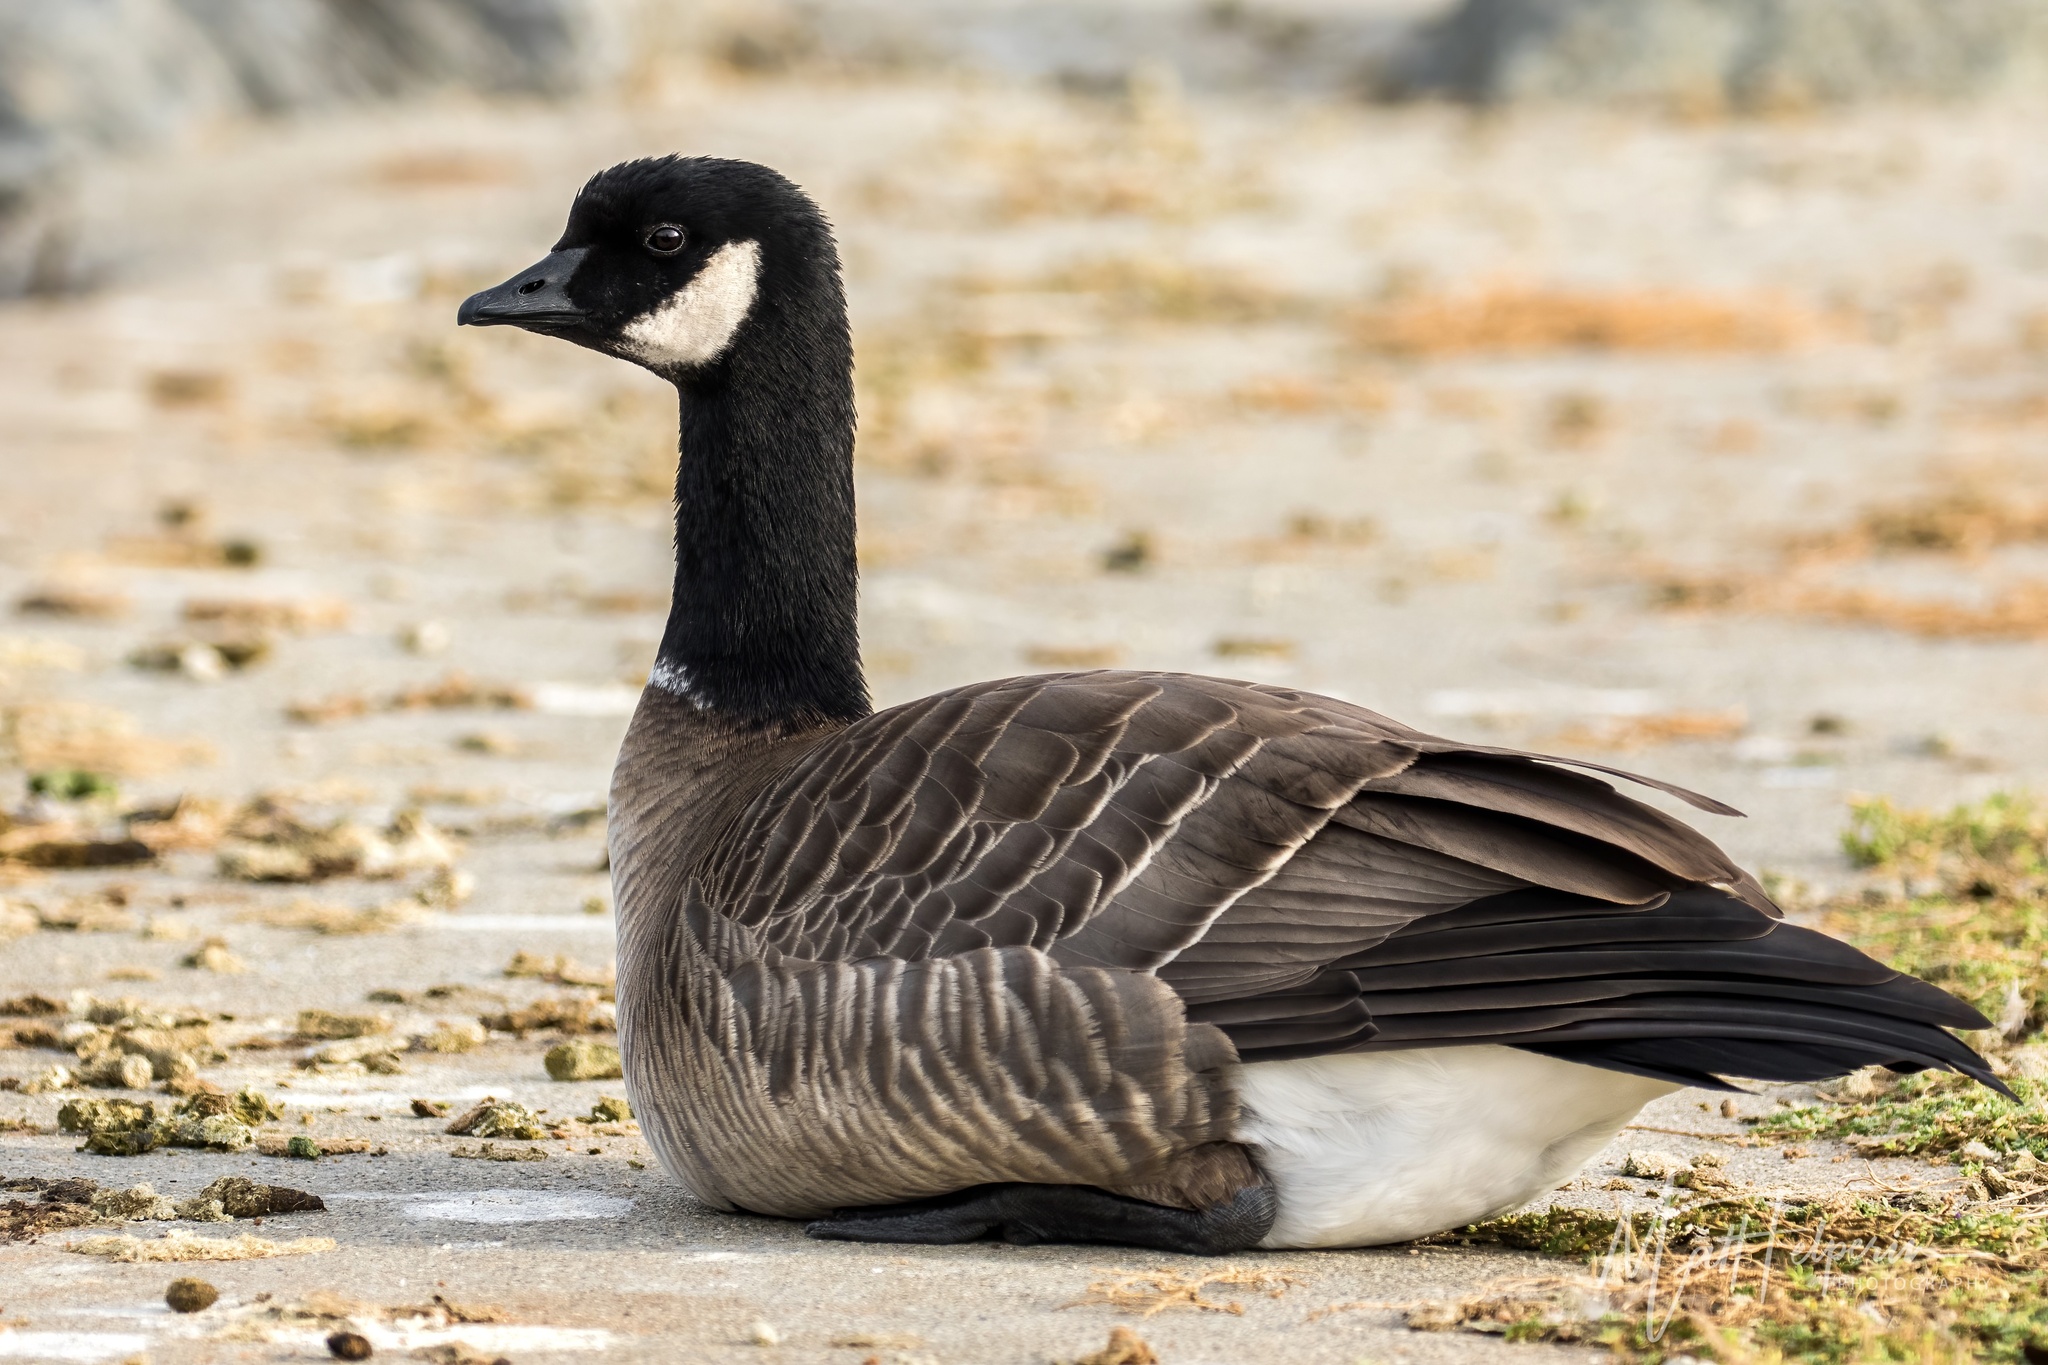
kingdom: Animalia
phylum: Chordata
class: Aves
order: Anseriformes
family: Anatidae
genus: Branta
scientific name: Branta hutchinsii
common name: Cackling goose
